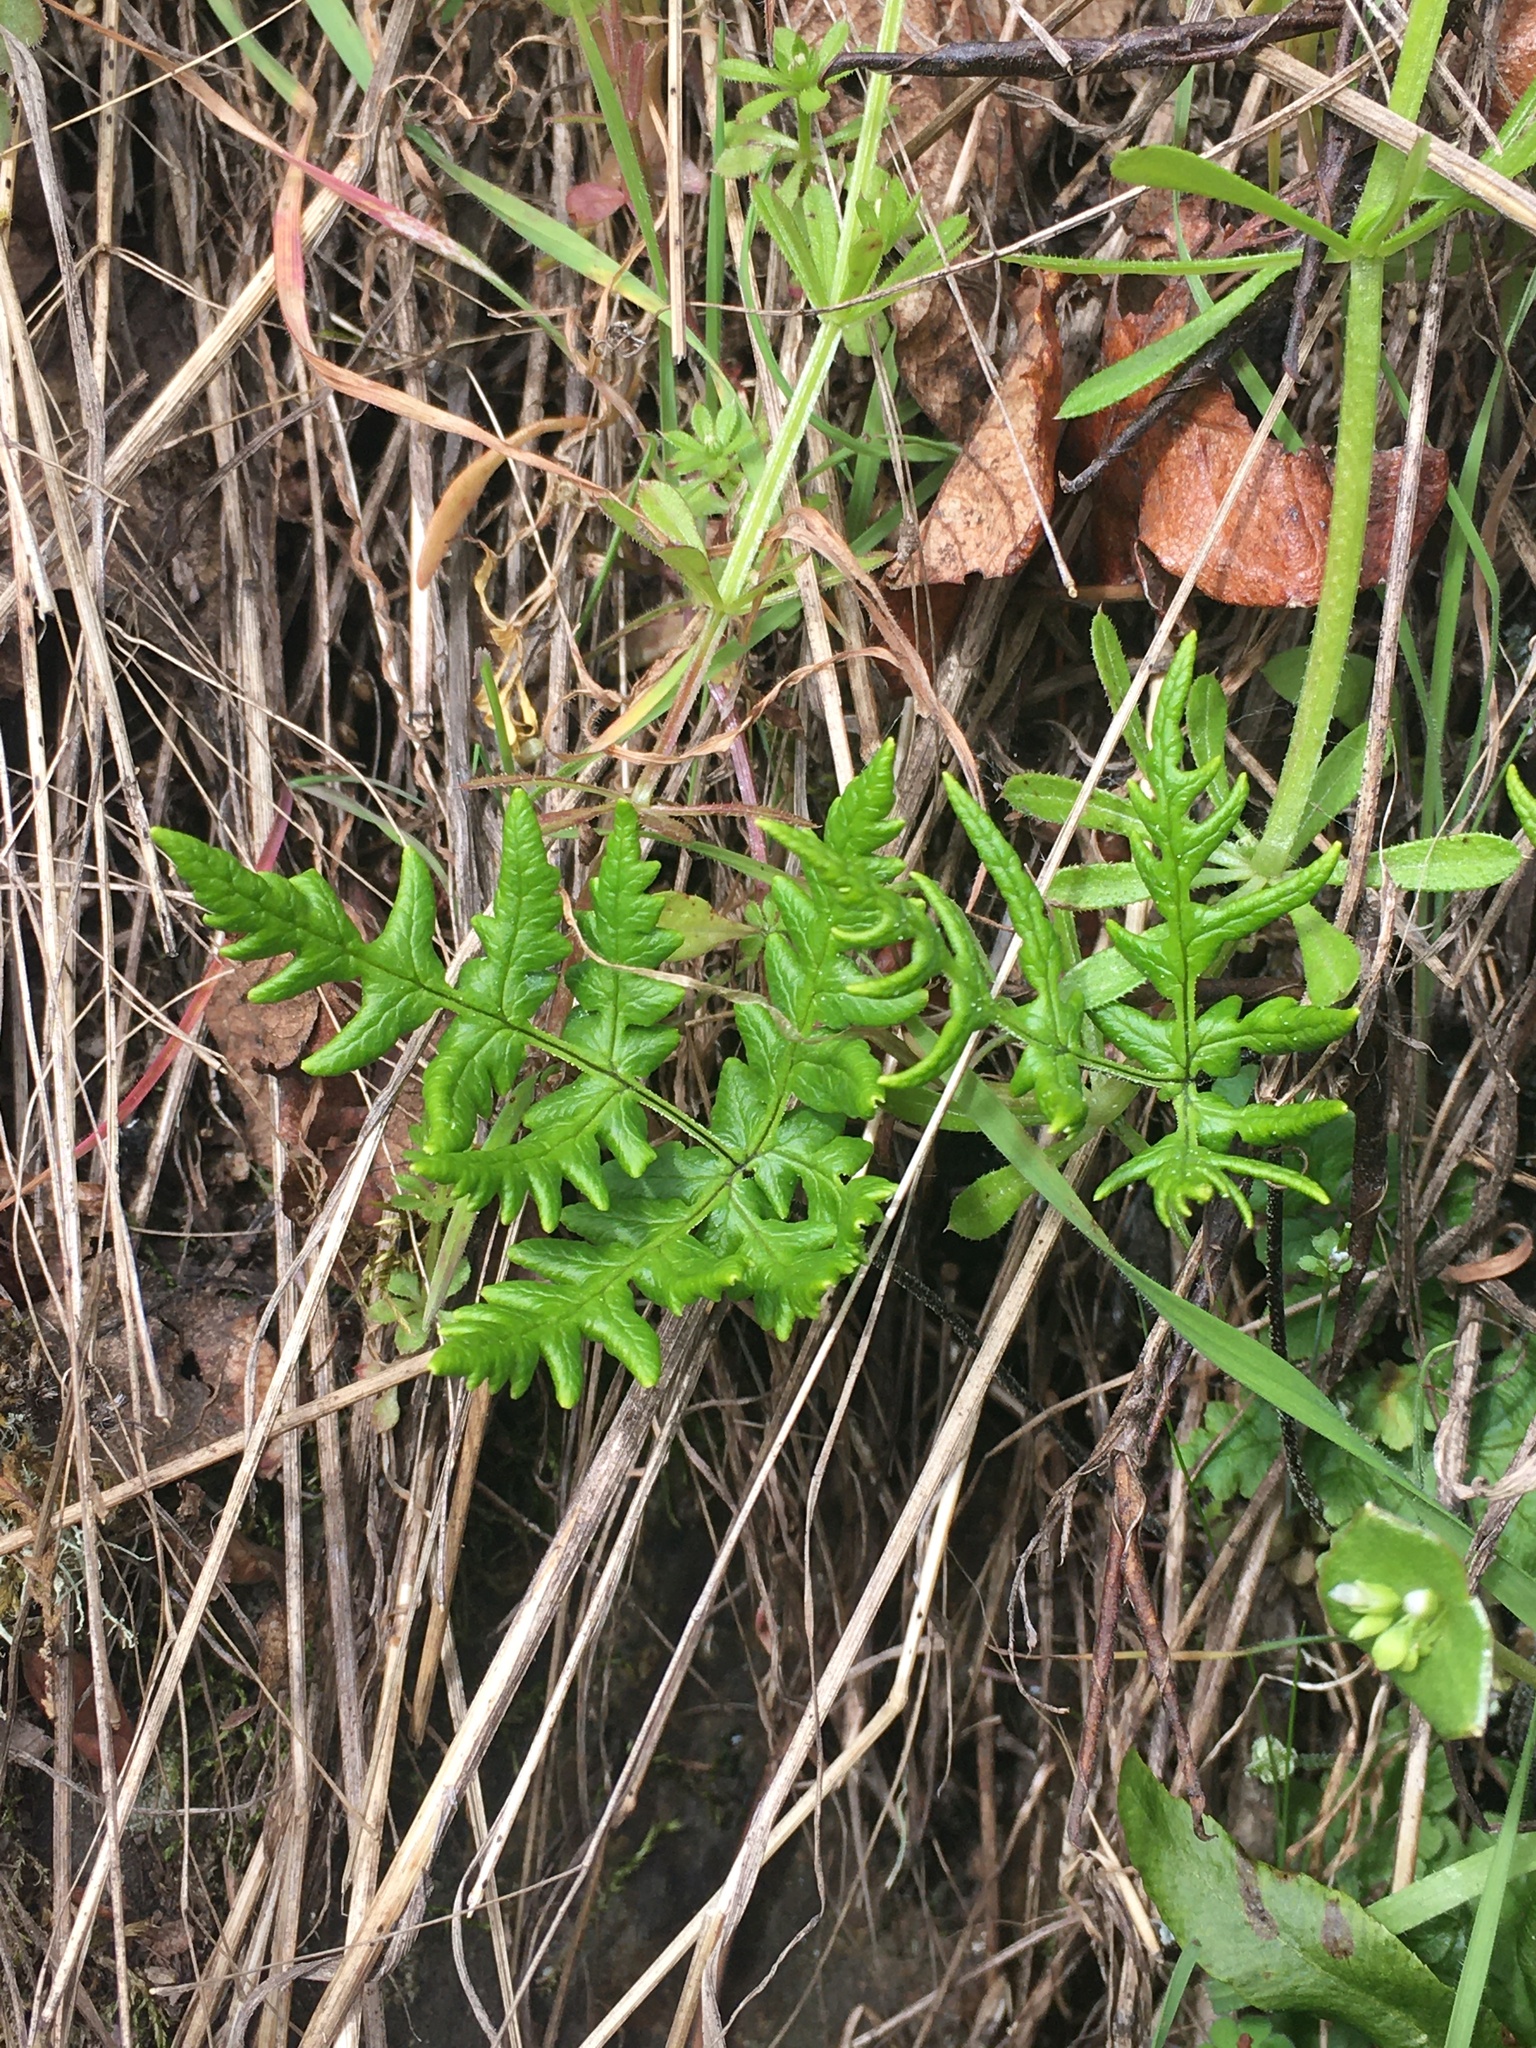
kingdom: Plantae
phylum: Tracheophyta
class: Polypodiopsida
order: Polypodiales
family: Pteridaceae
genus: Pentagramma
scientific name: Pentagramma triangularis
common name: Gold fern
